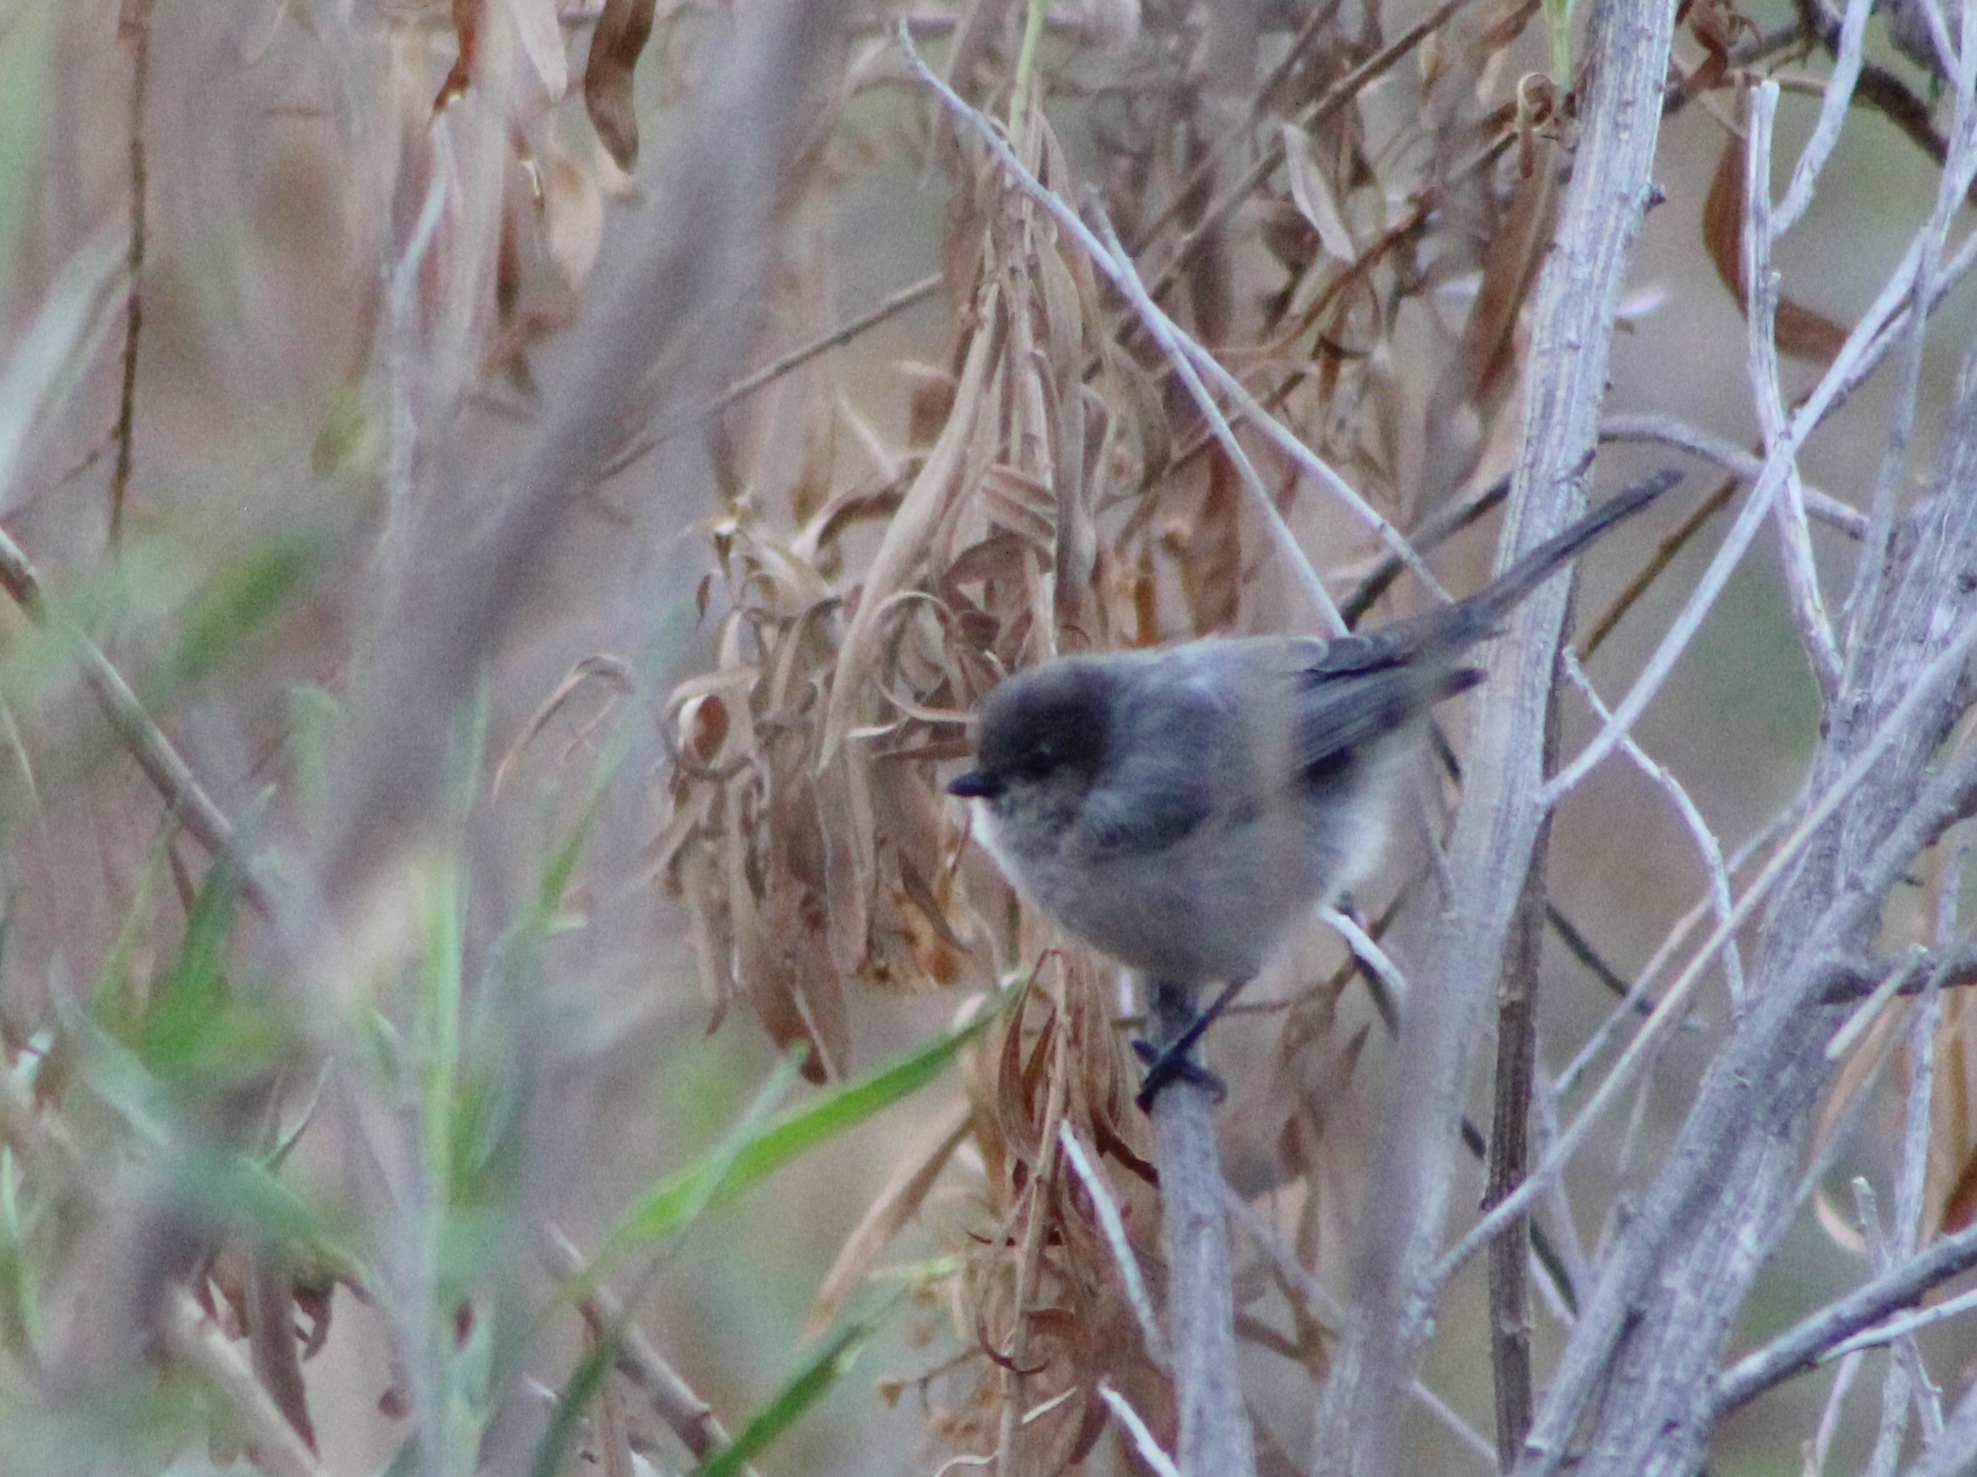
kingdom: Animalia
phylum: Chordata
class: Aves
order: Passeriformes
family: Aegithalidae
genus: Psaltriparus
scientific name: Psaltriparus minimus
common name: American bushtit
